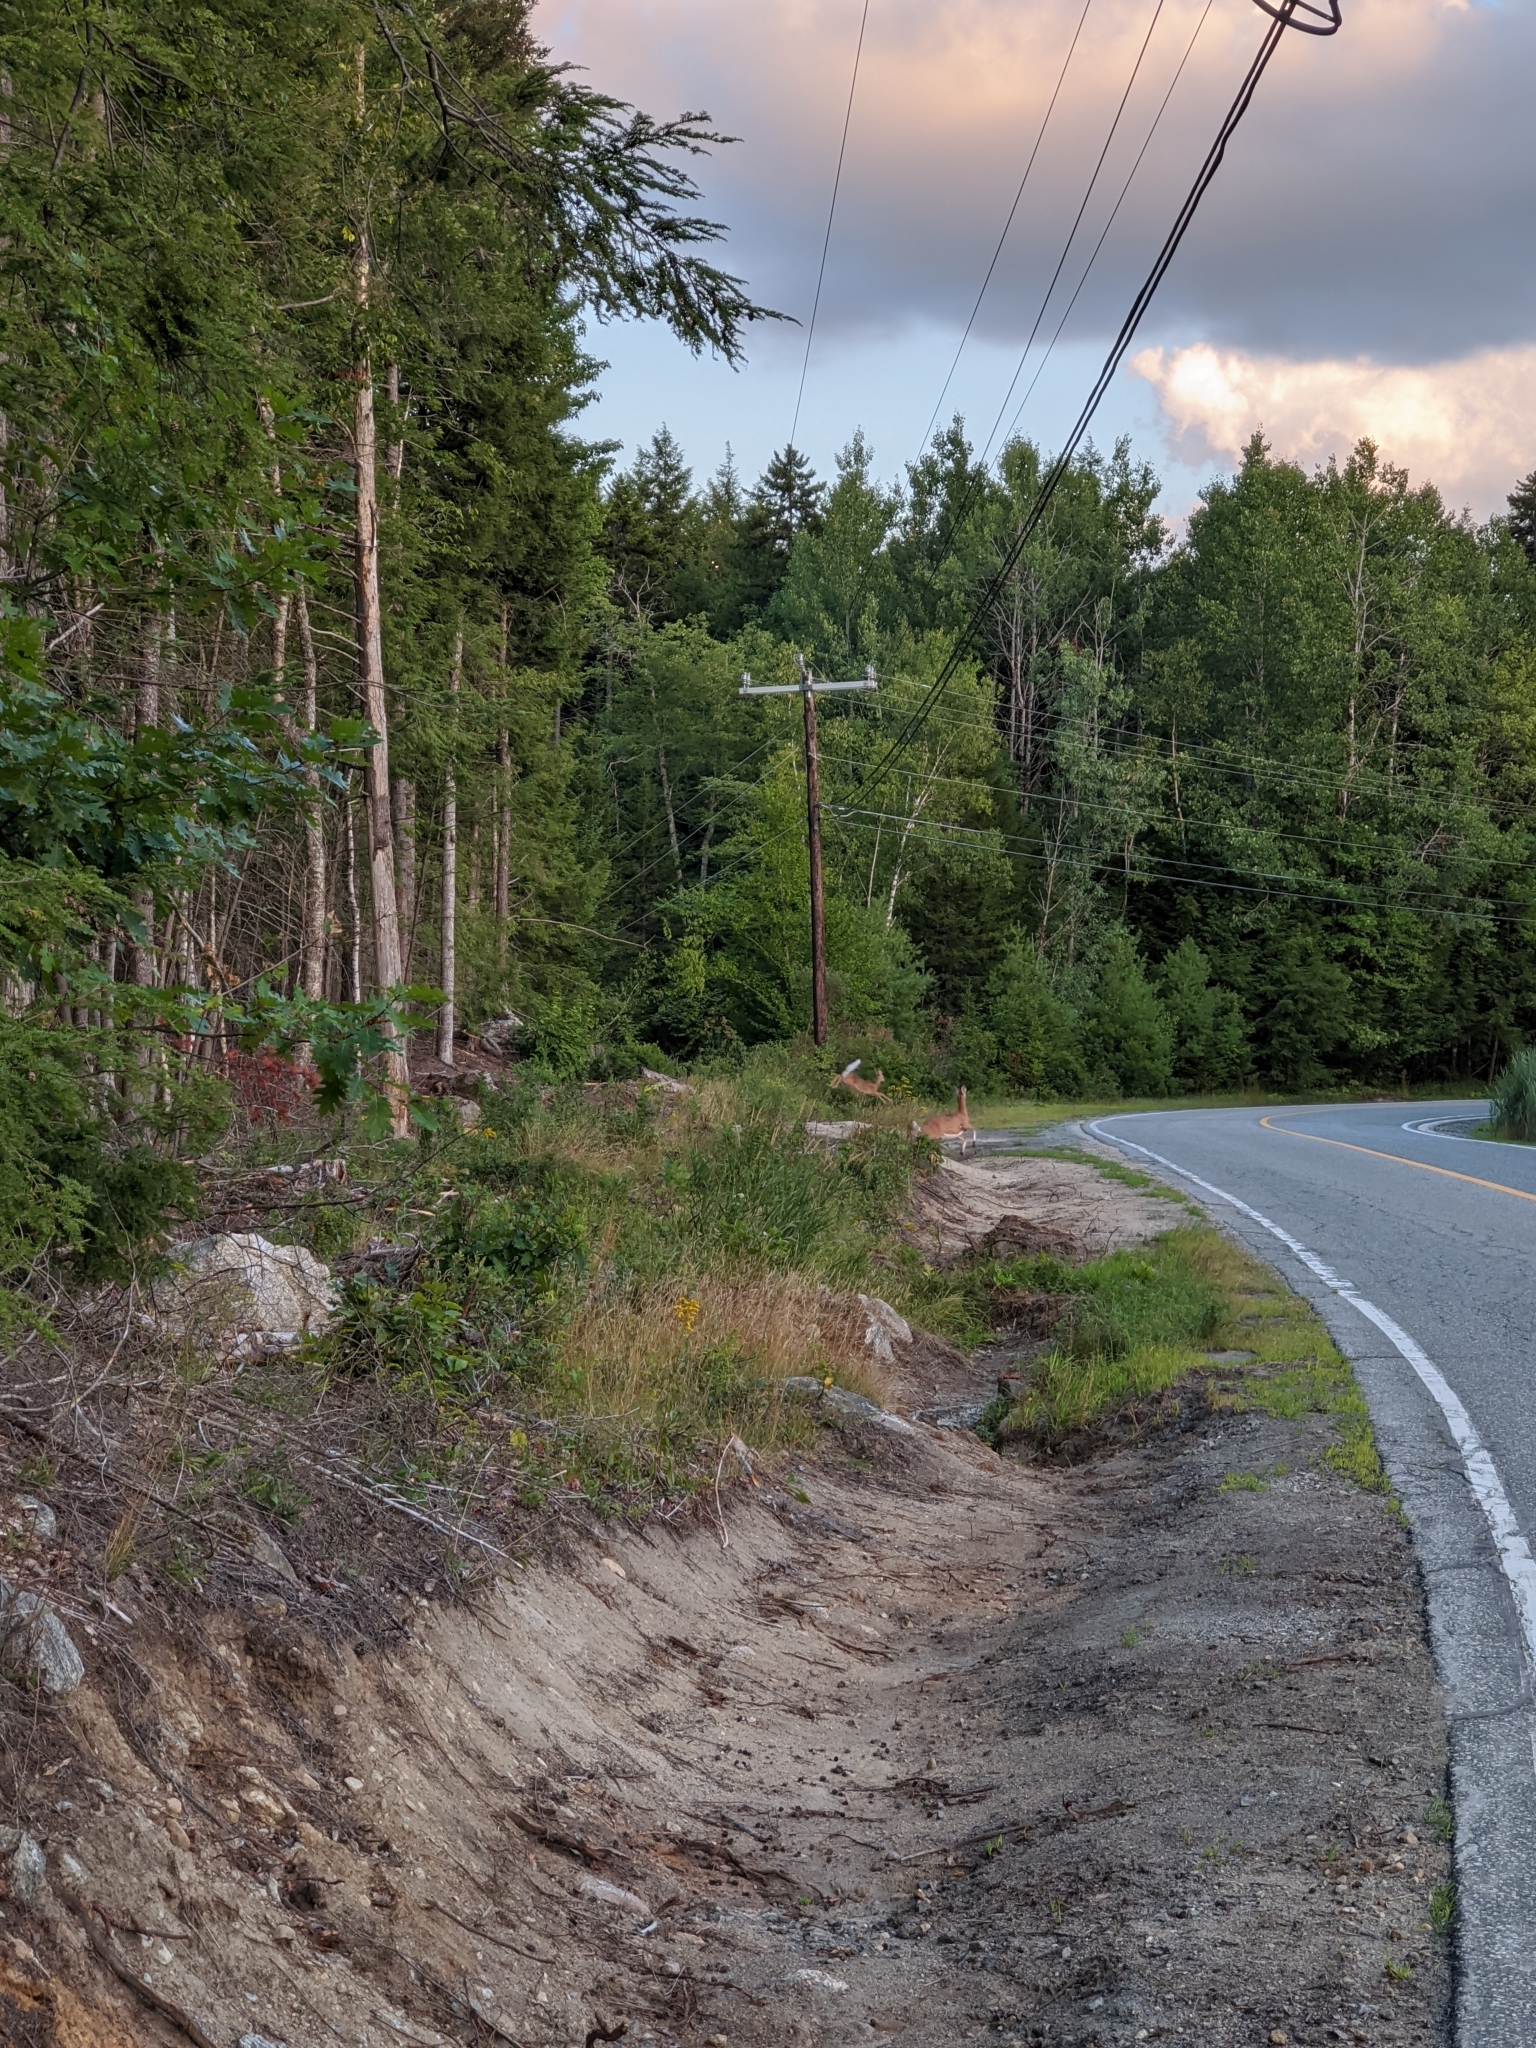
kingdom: Animalia
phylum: Chordata
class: Mammalia
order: Artiodactyla
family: Cervidae
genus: Odocoileus
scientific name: Odocoileus virginianus
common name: White-tailed deer
